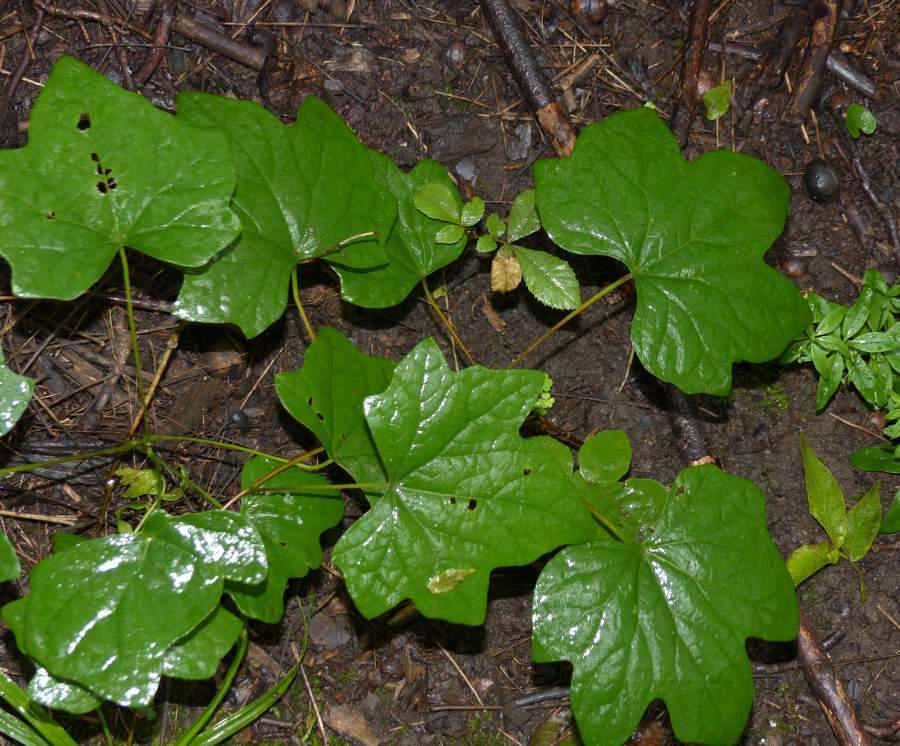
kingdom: Plantae
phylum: Tracheophyta
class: Magnoliopsida
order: Ranunculales
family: Menispermaceae
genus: Menispermum
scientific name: Menispermum canadense
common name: Moonseed
